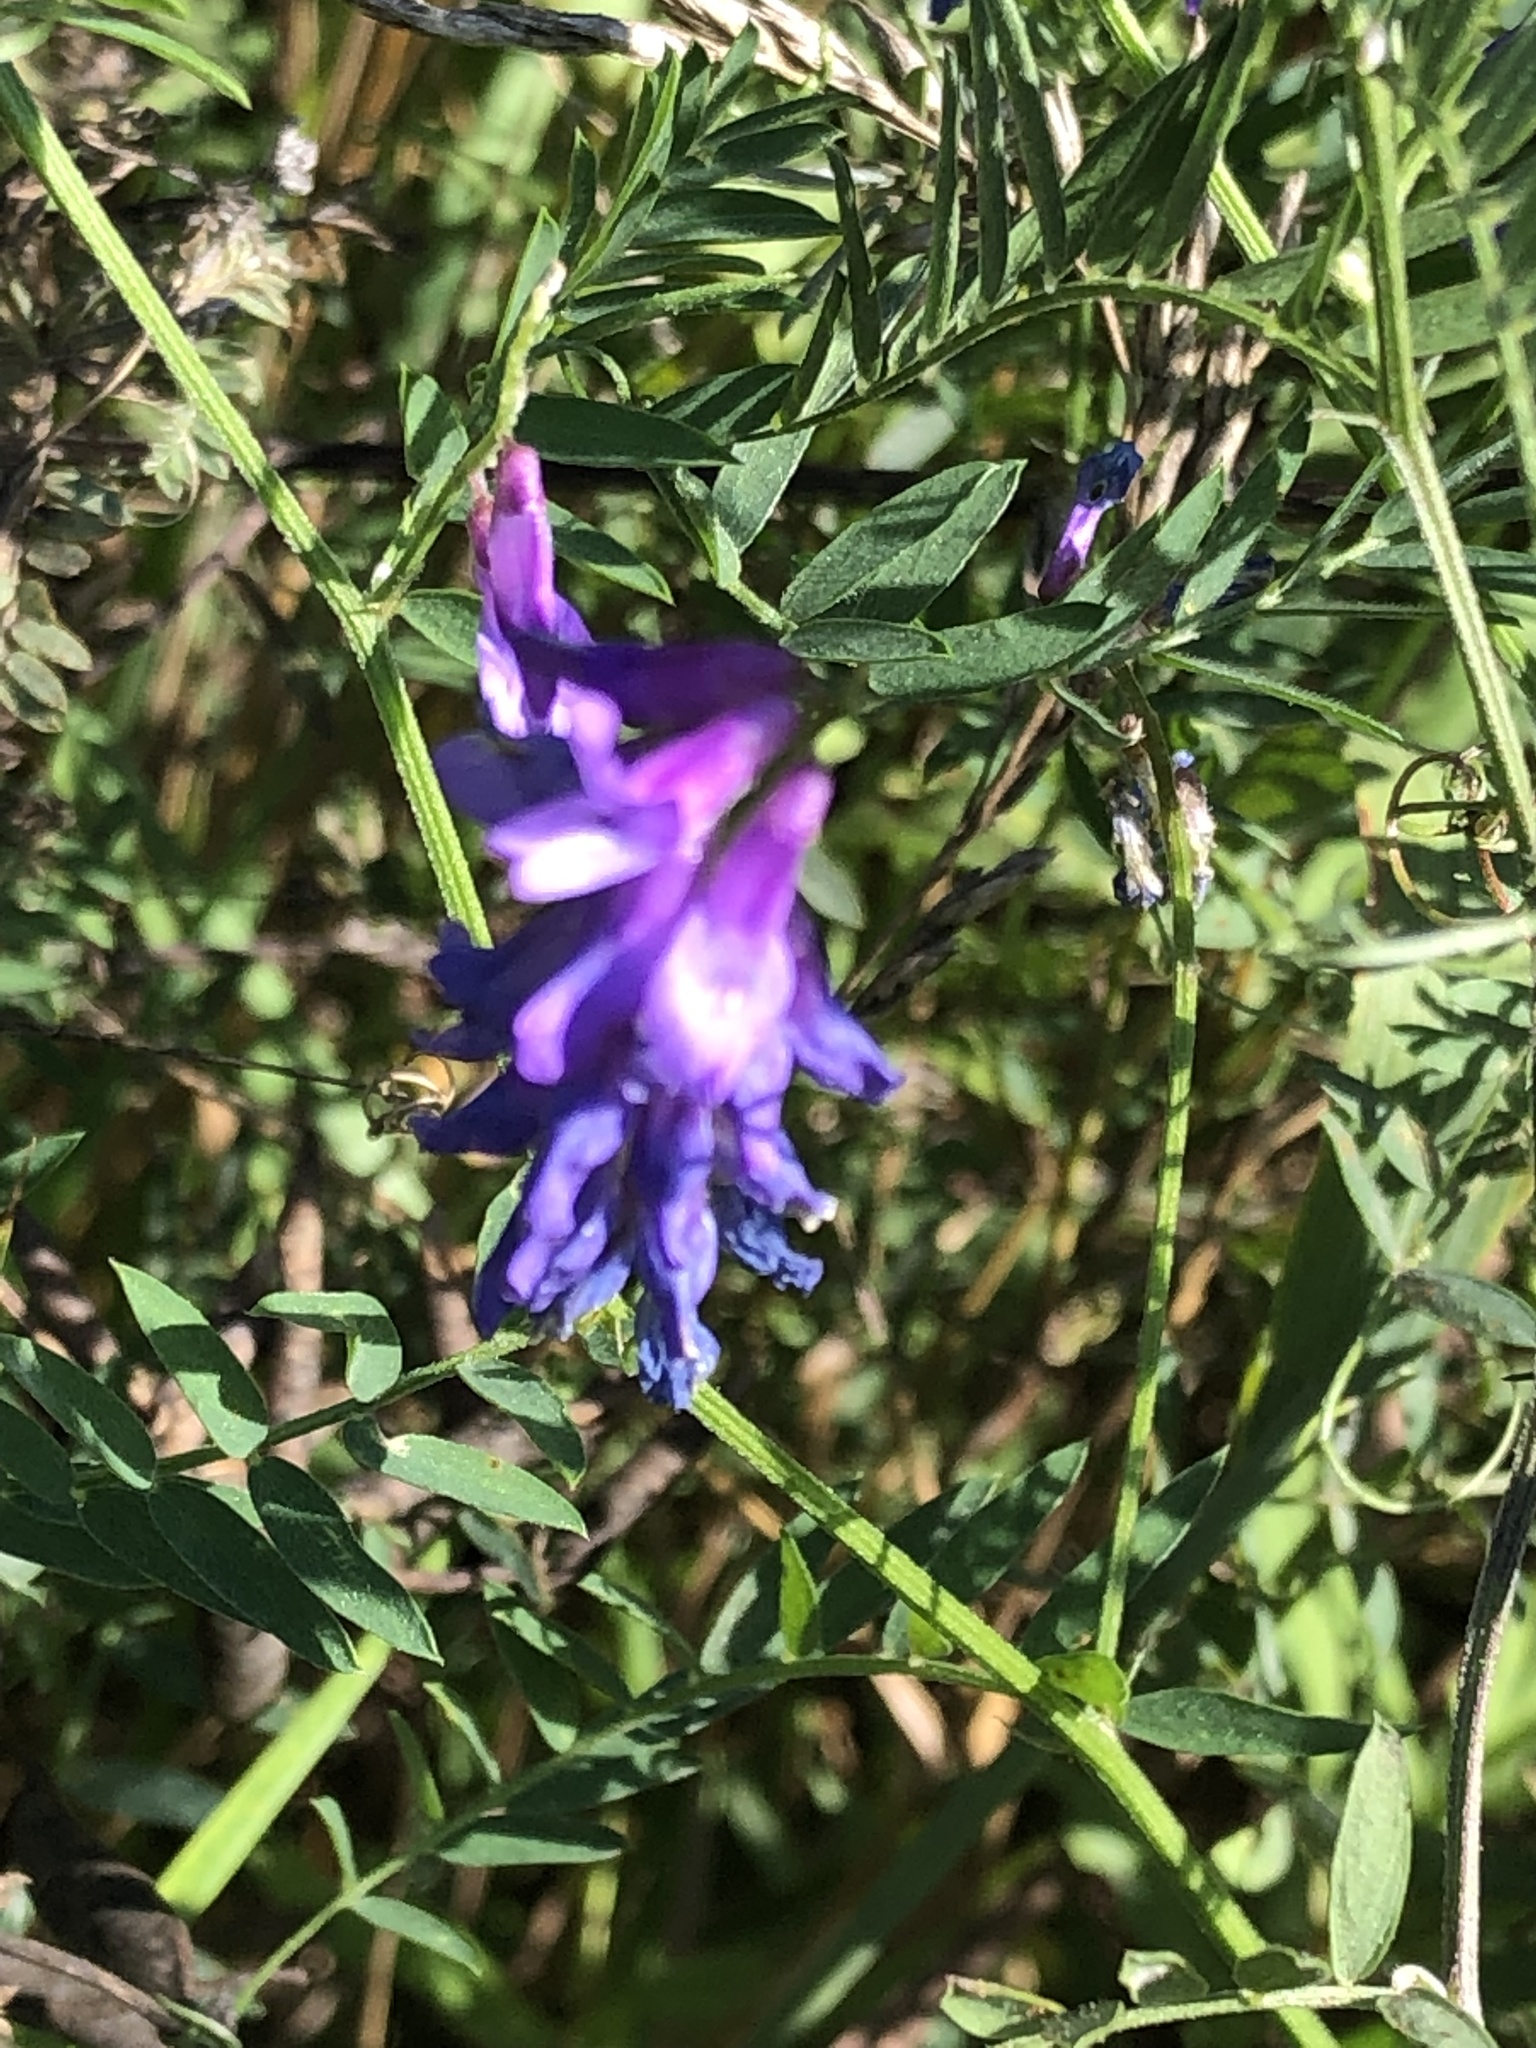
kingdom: Plantae
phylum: Tracheophyta
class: Magnoliopsida
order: Fabales
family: Fabaceae
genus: Vicia
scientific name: Vicia cracca
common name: Bird vetch
